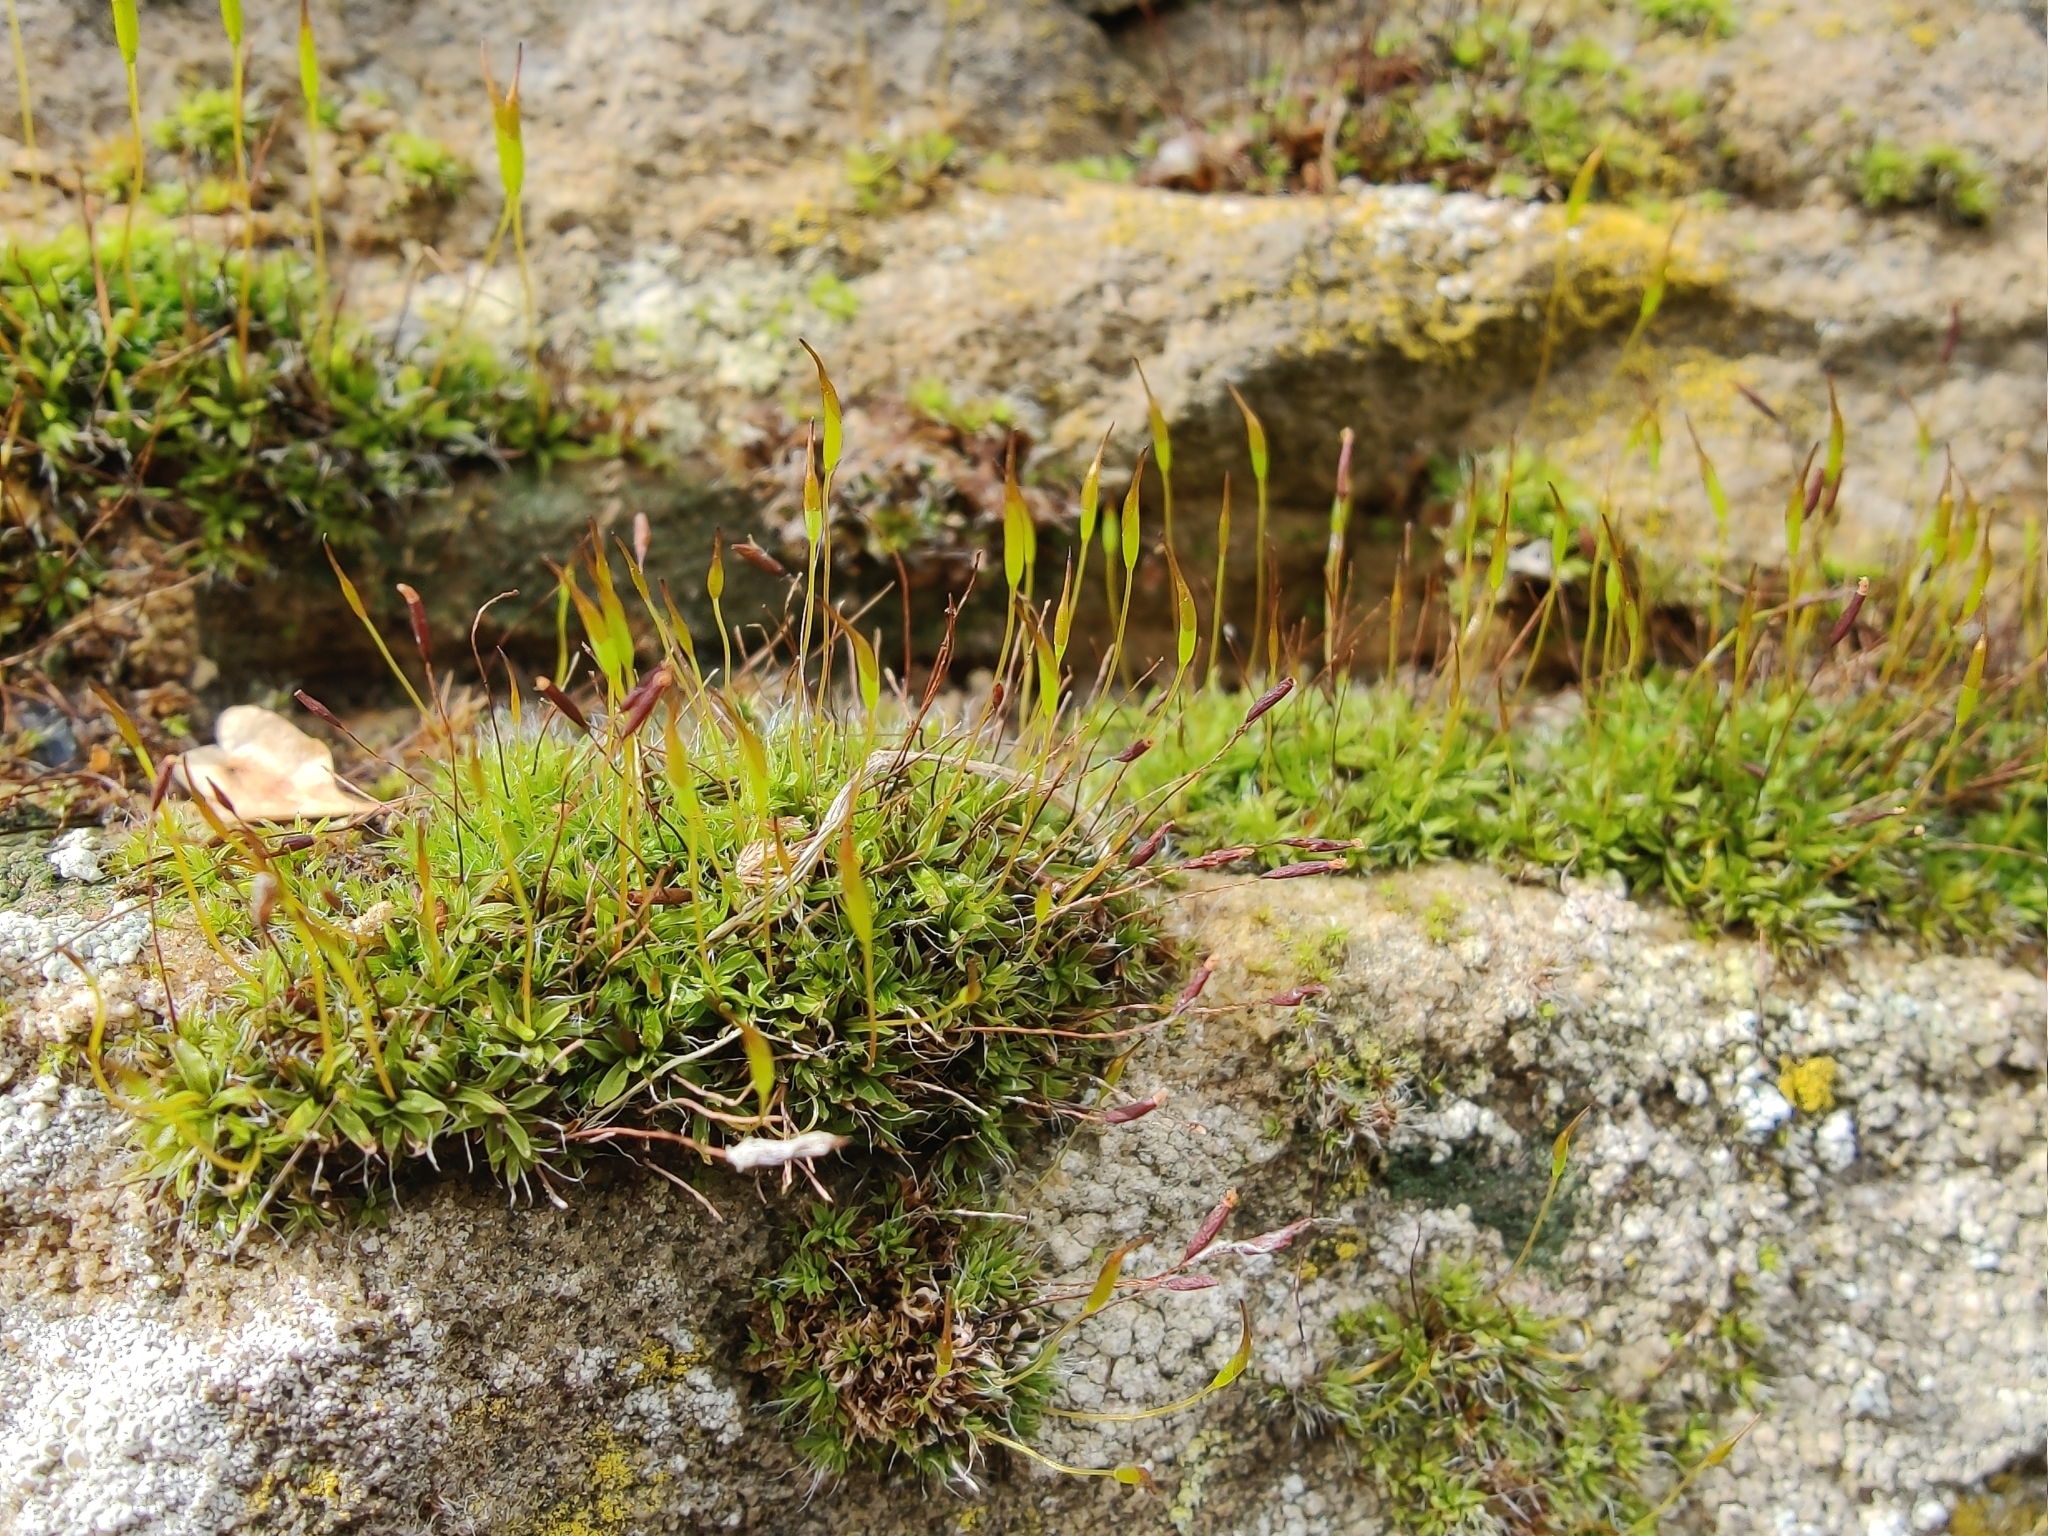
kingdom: Plantae
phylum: Bryophyta
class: Bryopsida
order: Pottiales
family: Pottiaceae
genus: Tortula
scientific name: Tortula muralis
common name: Wall screw-moss
